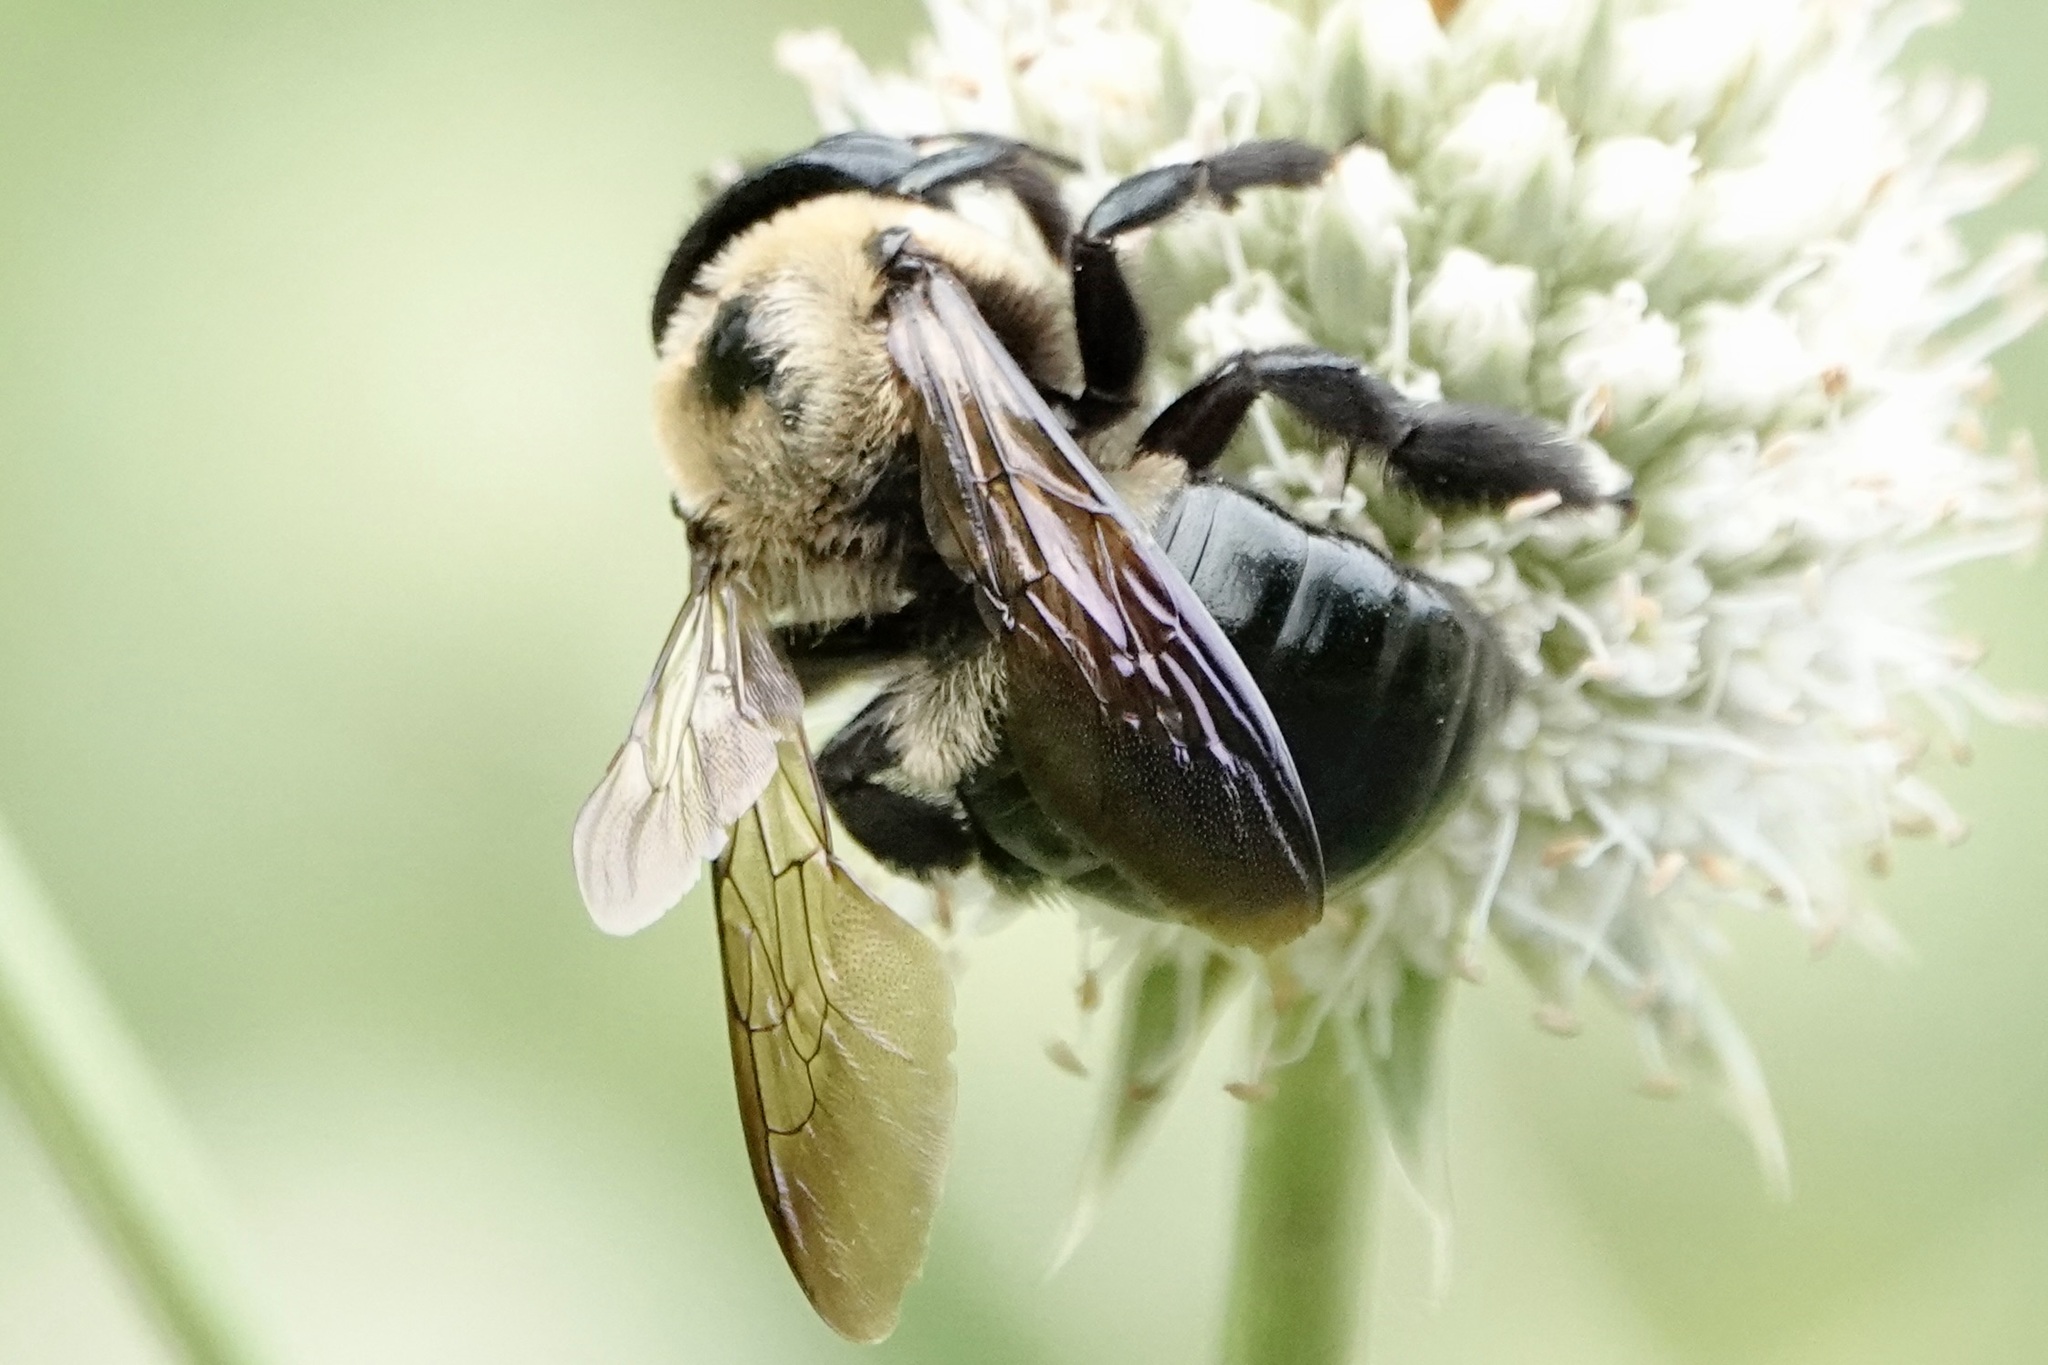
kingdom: Animalia
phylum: Arthropoda
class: Insecta
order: Hymenoptera
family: Apidae
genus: Xylocopa
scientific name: Xylocopa virginica
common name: Carpenter bee
